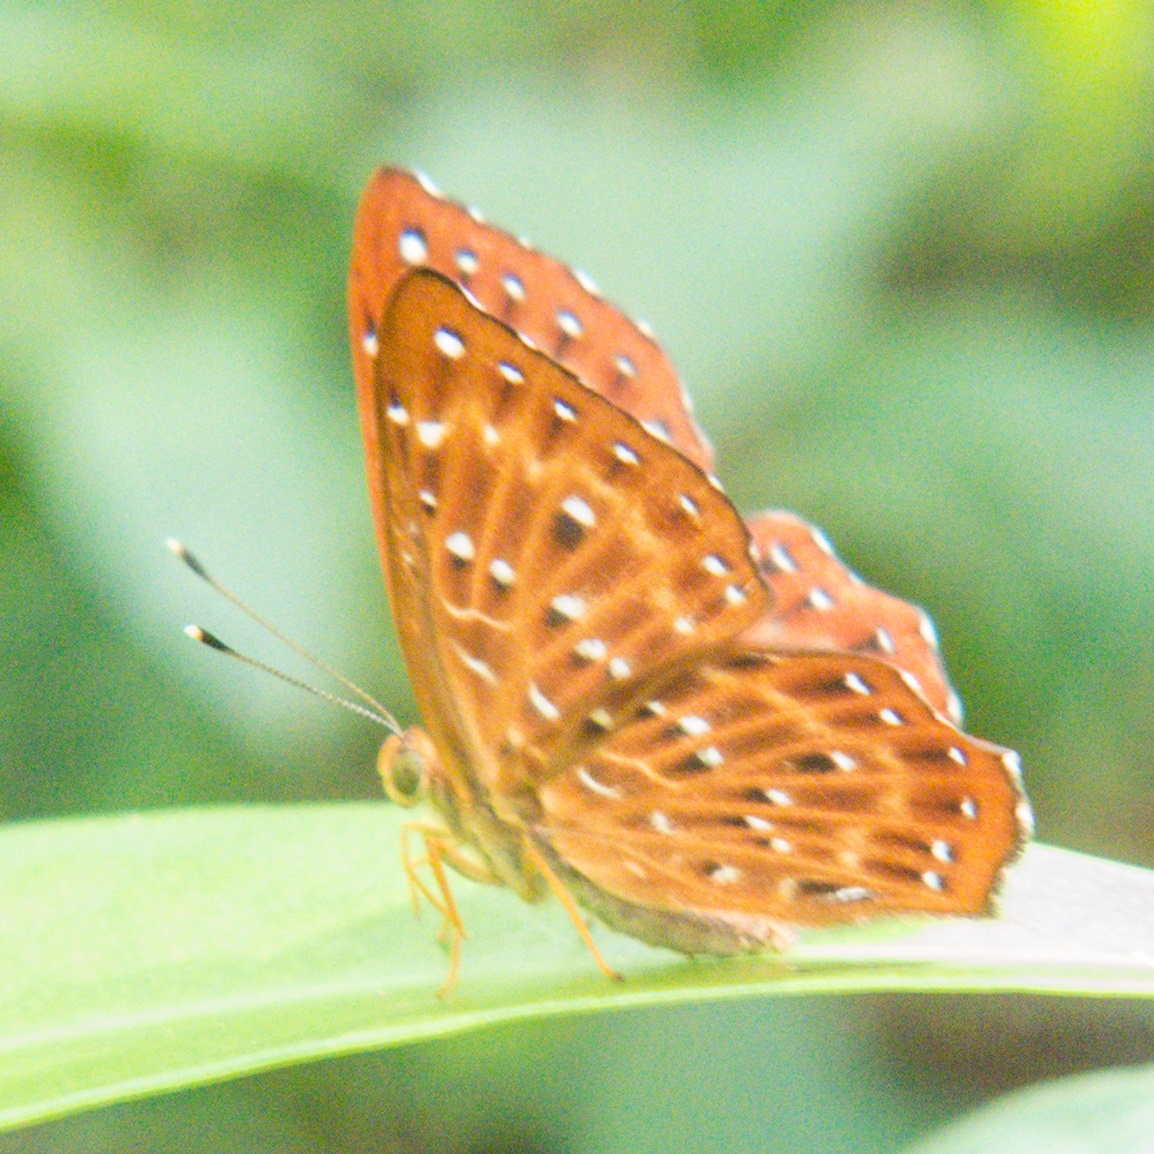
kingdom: Animalia
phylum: Arthropoda
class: Insecta
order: Lepidoptera
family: Riodinidae
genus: Zemeros
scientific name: Zemeros flegyas
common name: Punchinello
